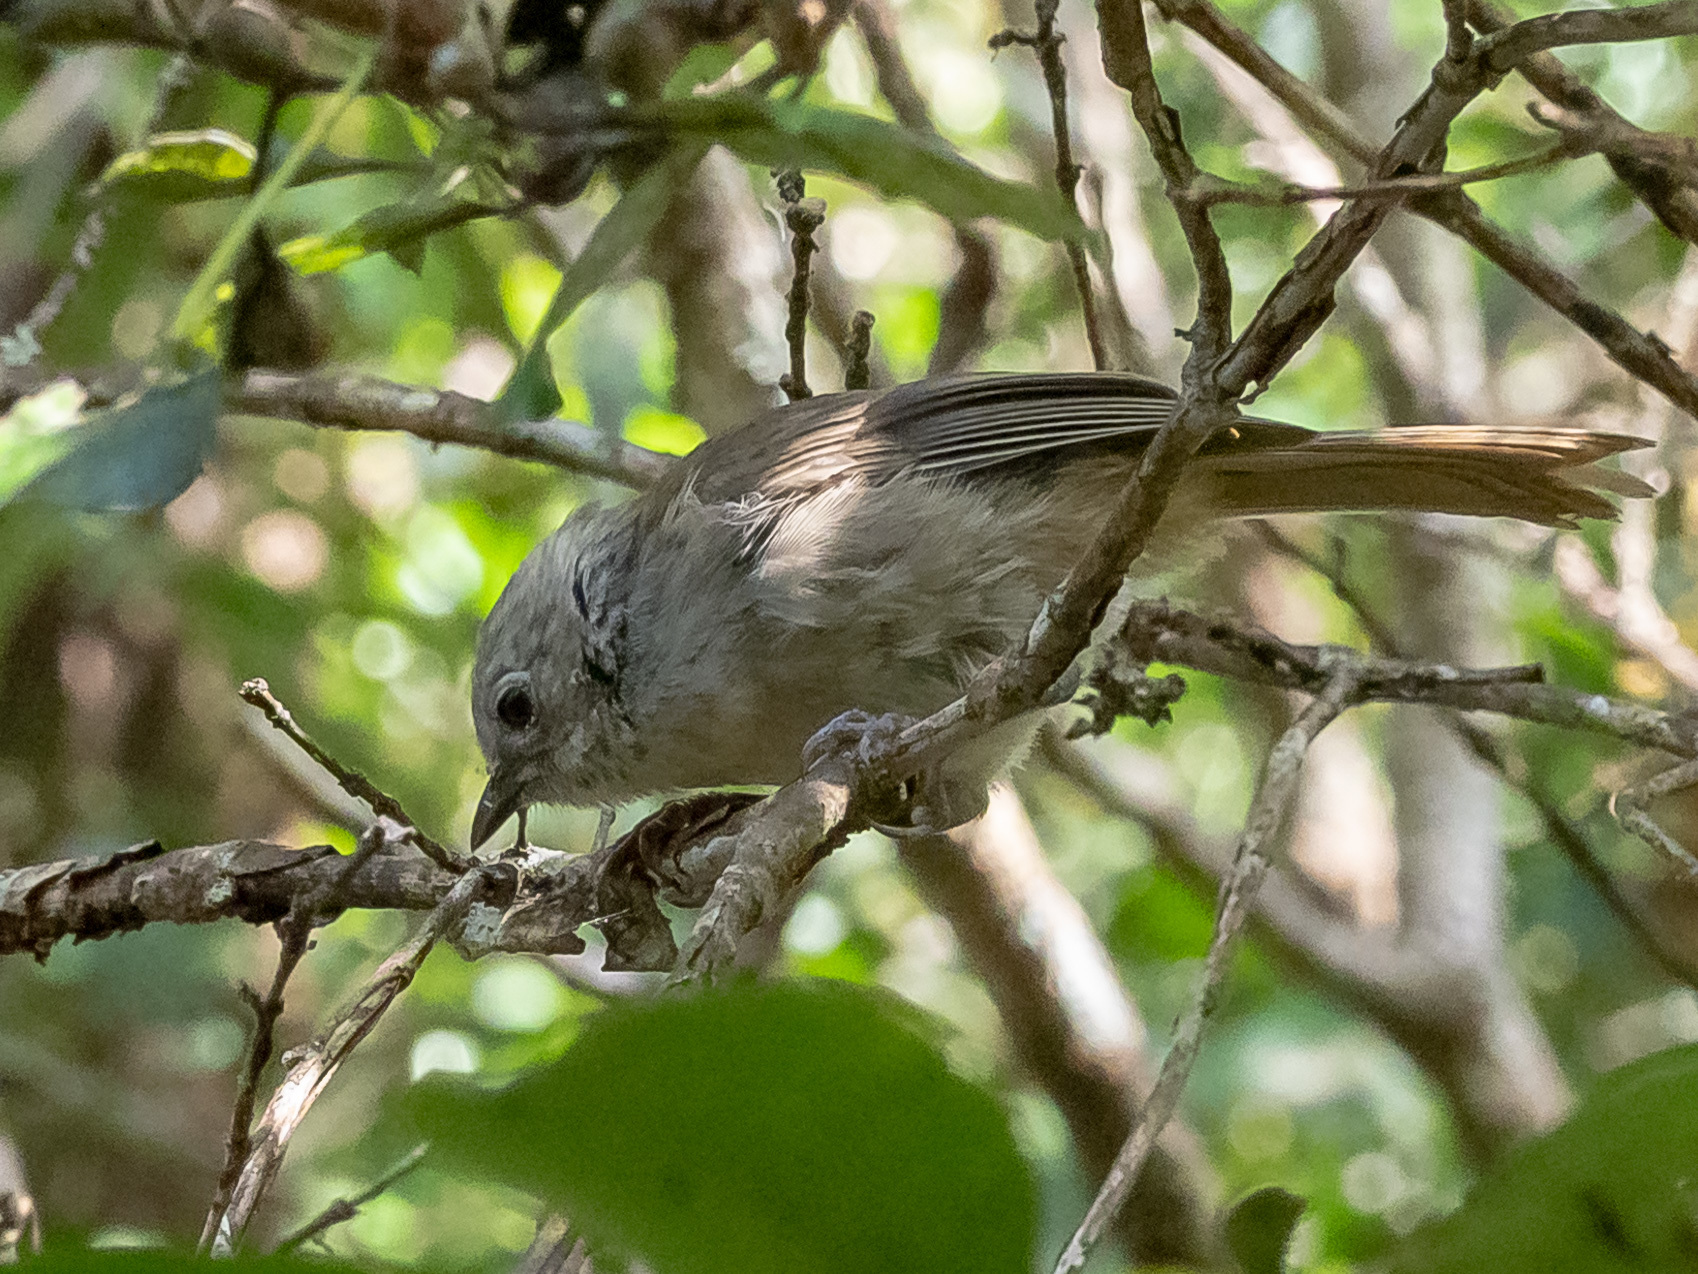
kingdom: Animalia
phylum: Chordata
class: Aves
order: Passeriformes
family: Acanthizidae
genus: Mohoua
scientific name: Mohoua albicilla
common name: Whitehead
